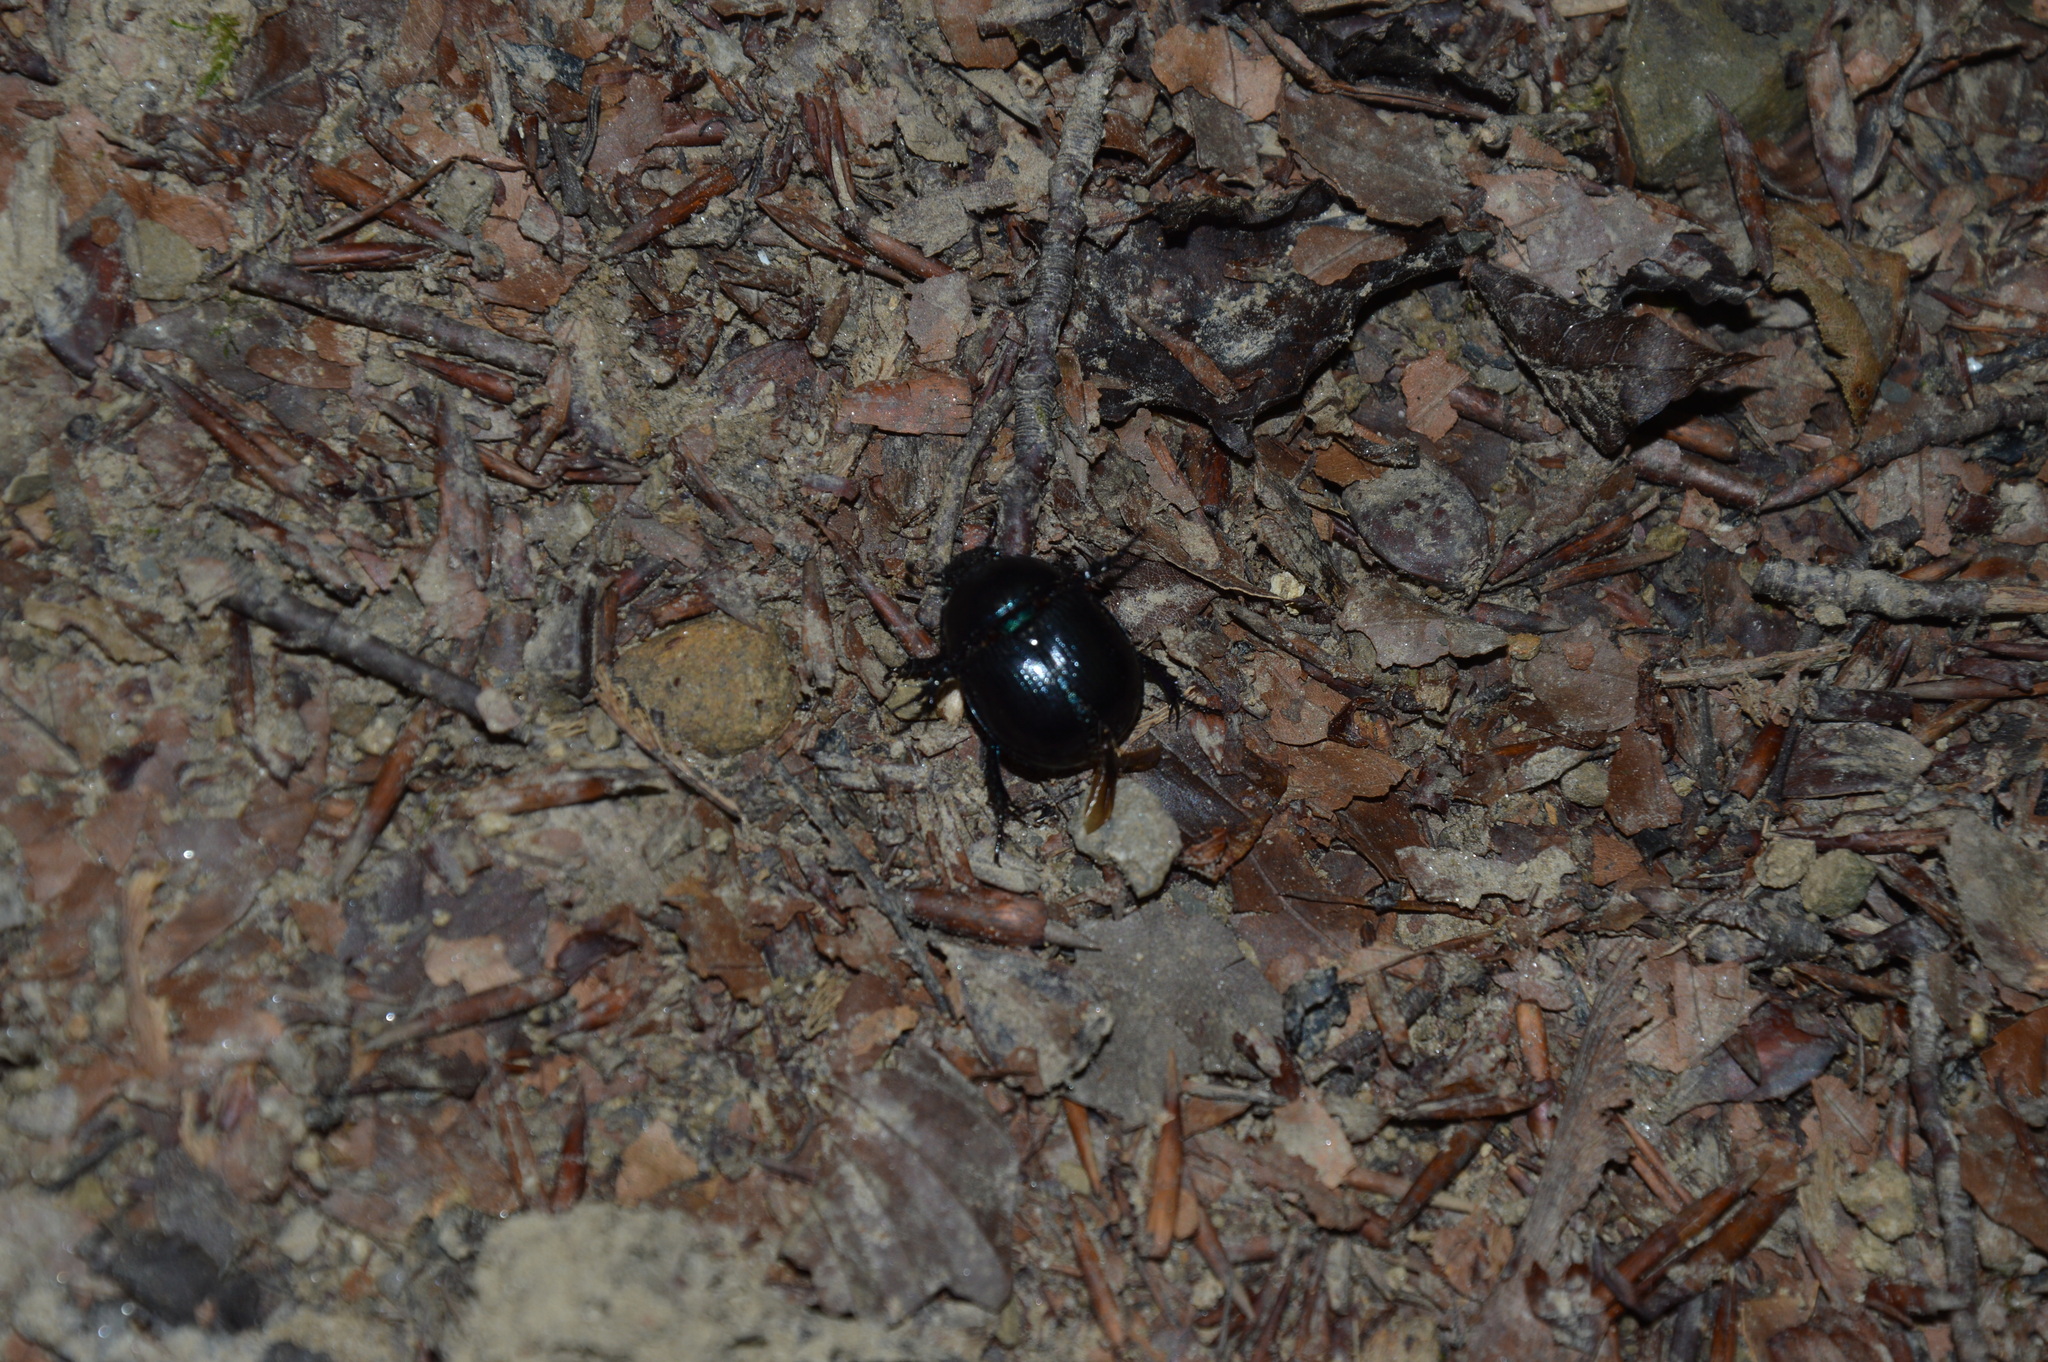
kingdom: Animalia
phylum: Arthropoda
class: Insecta
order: Coleoptera
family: Geotrupidae
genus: Anoplotrupes
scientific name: Anoplotrupes stercorosus
